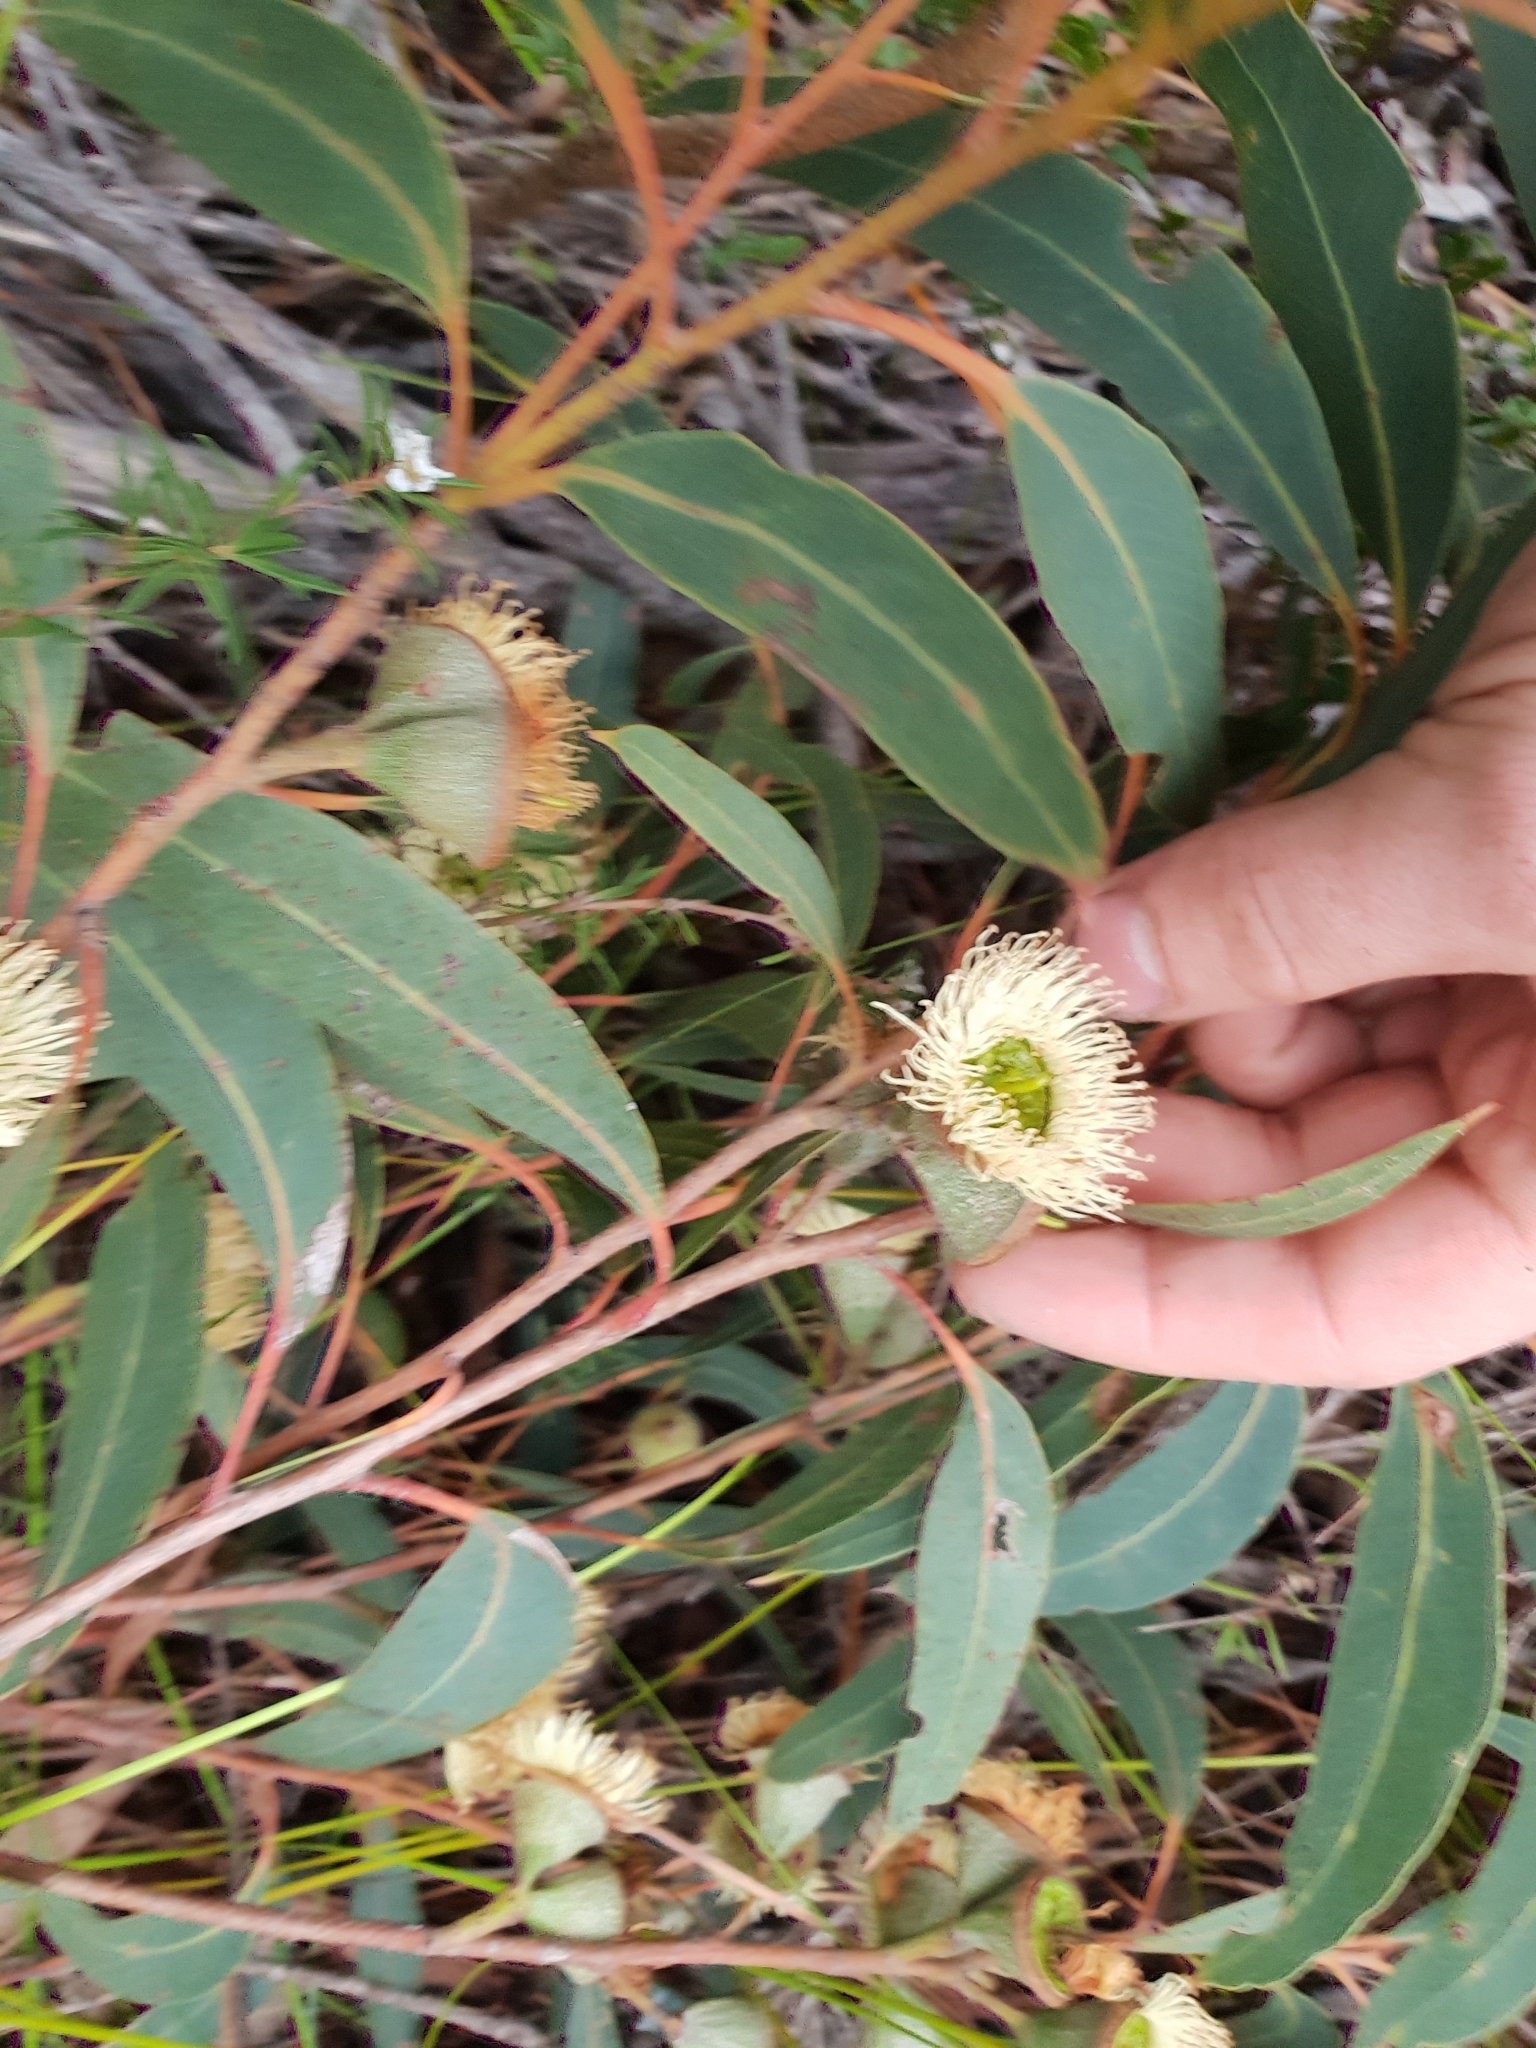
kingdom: Plantae
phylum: Tracheophyta
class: Magnoliopsida
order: Myrtales
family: Myrtaceae
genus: Eucalyptus
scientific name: Eucalyptus megacarpa
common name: Bullich
